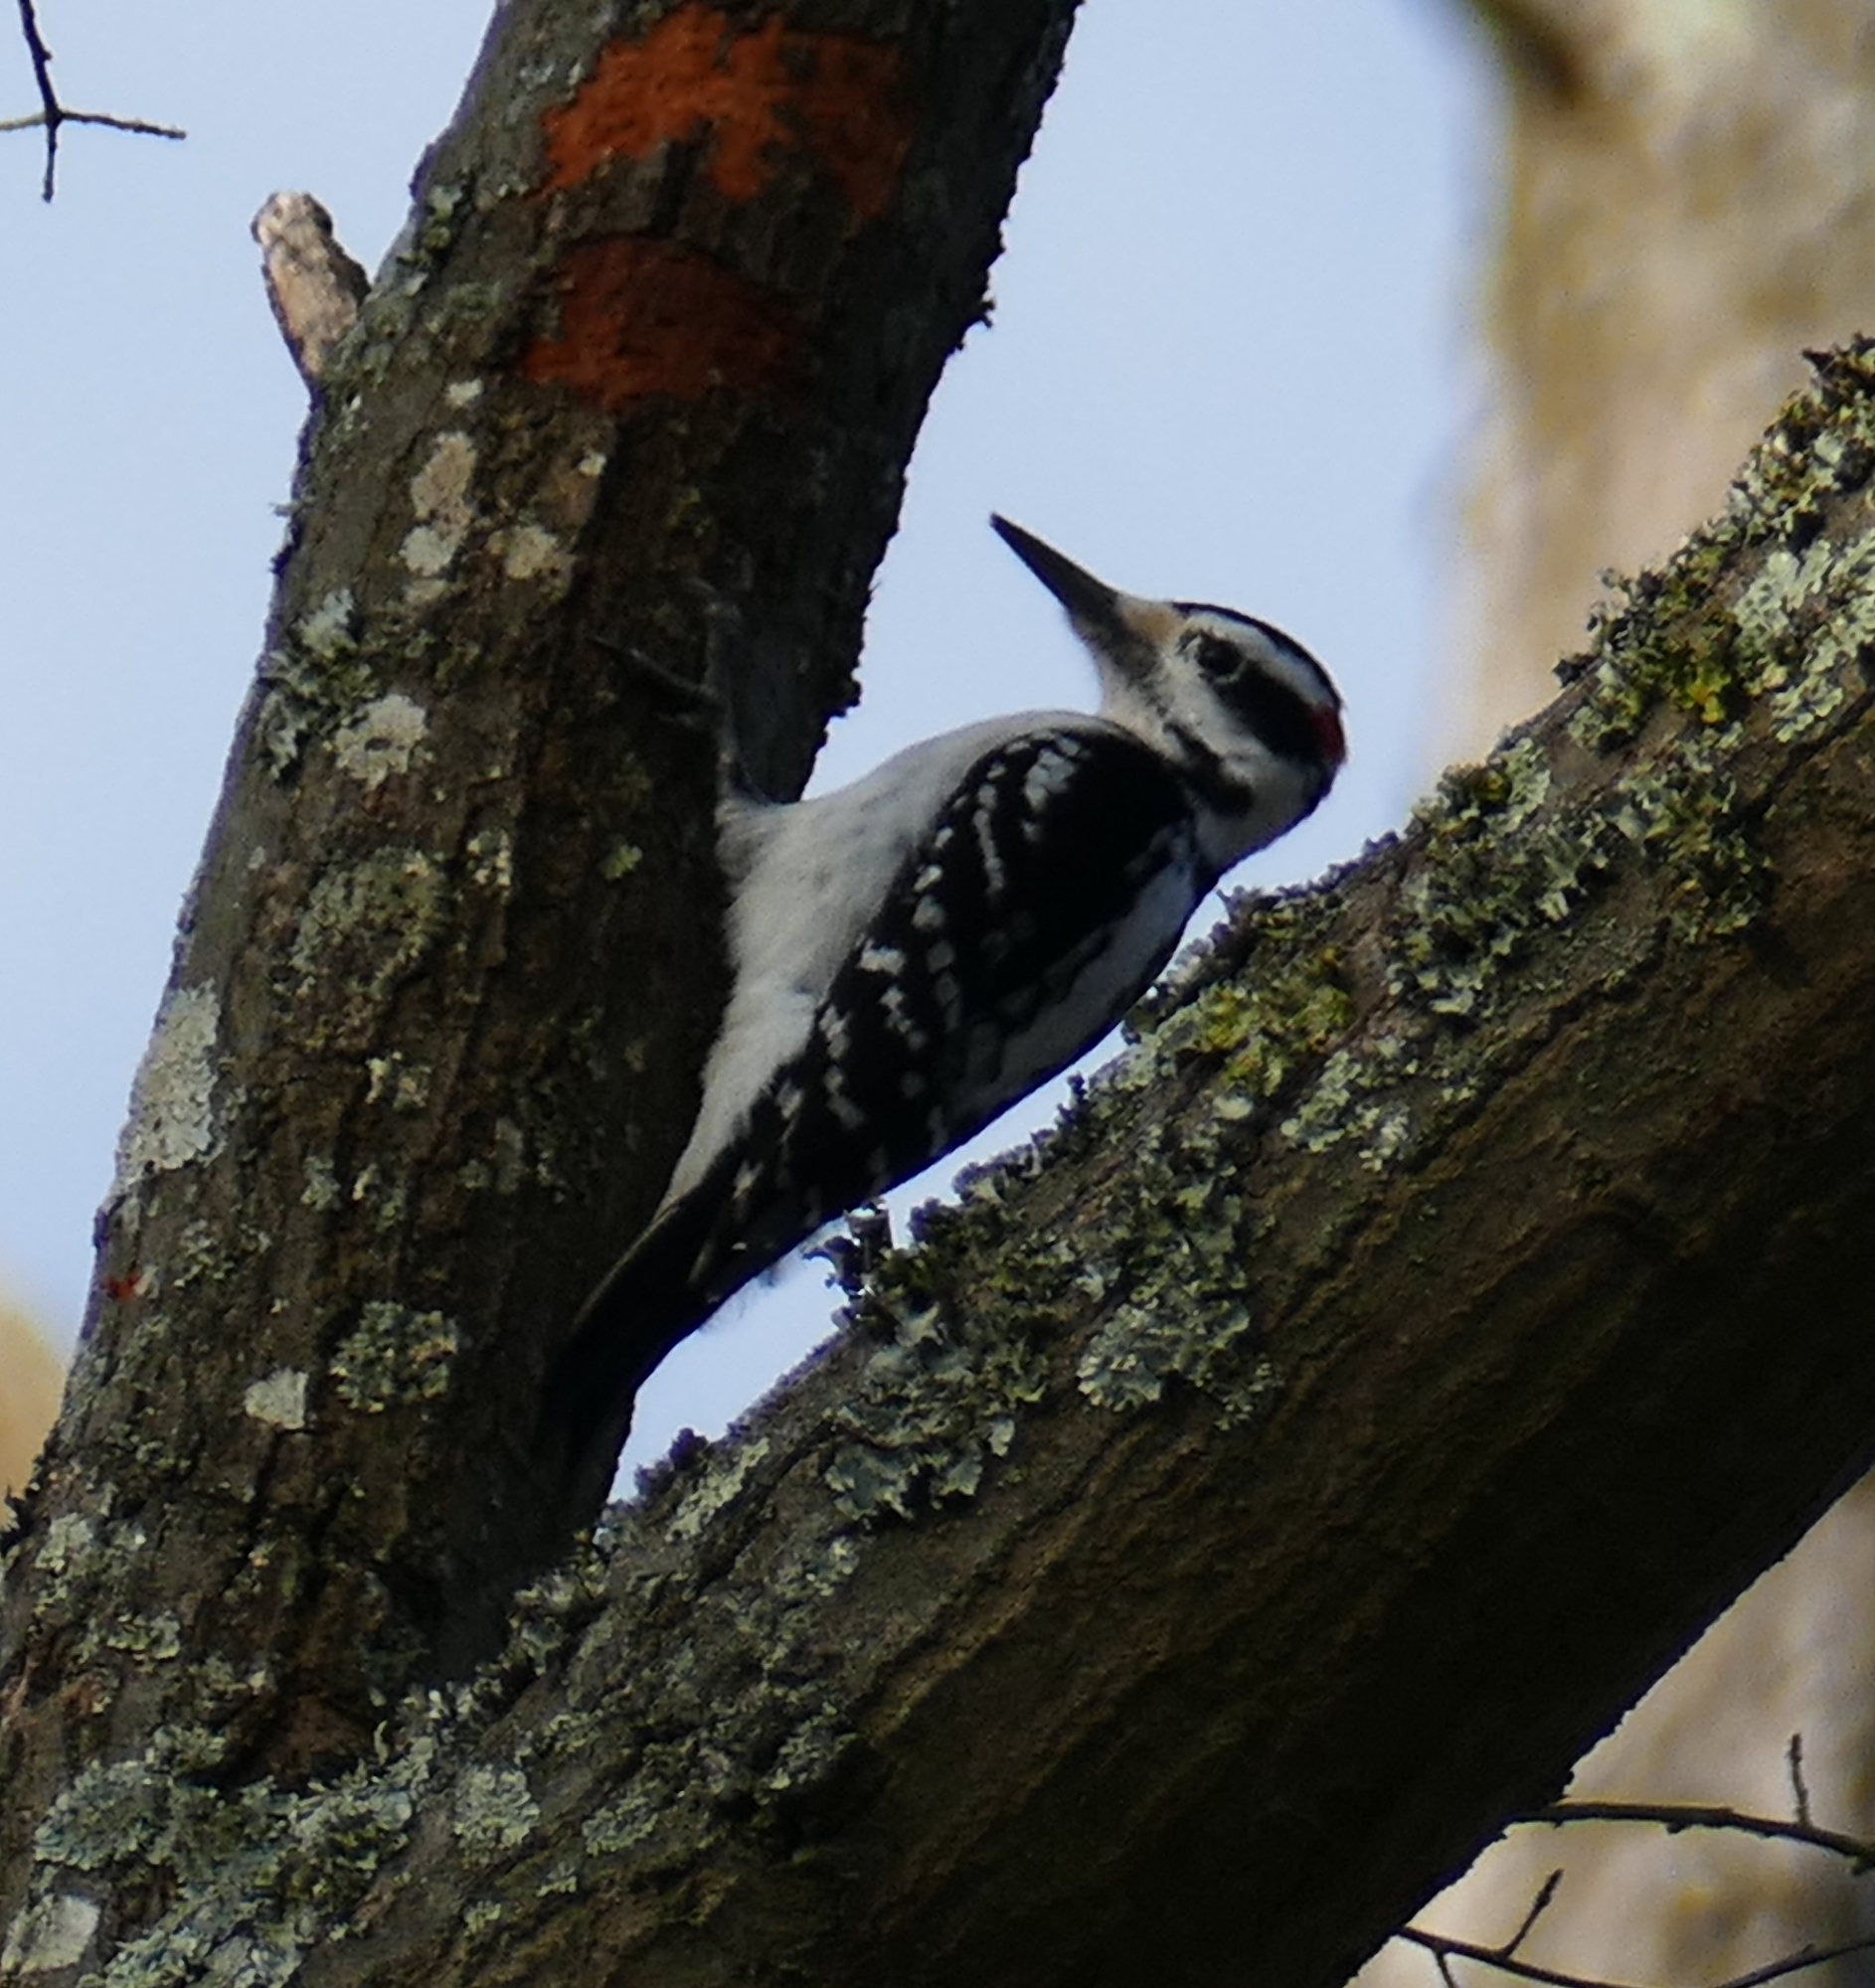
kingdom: Animalia
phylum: Chordata
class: Aves
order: Piciformes
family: Picidae
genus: Leuconotopicus
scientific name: Leuconotopicus villosus
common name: Hairy woodpecker
